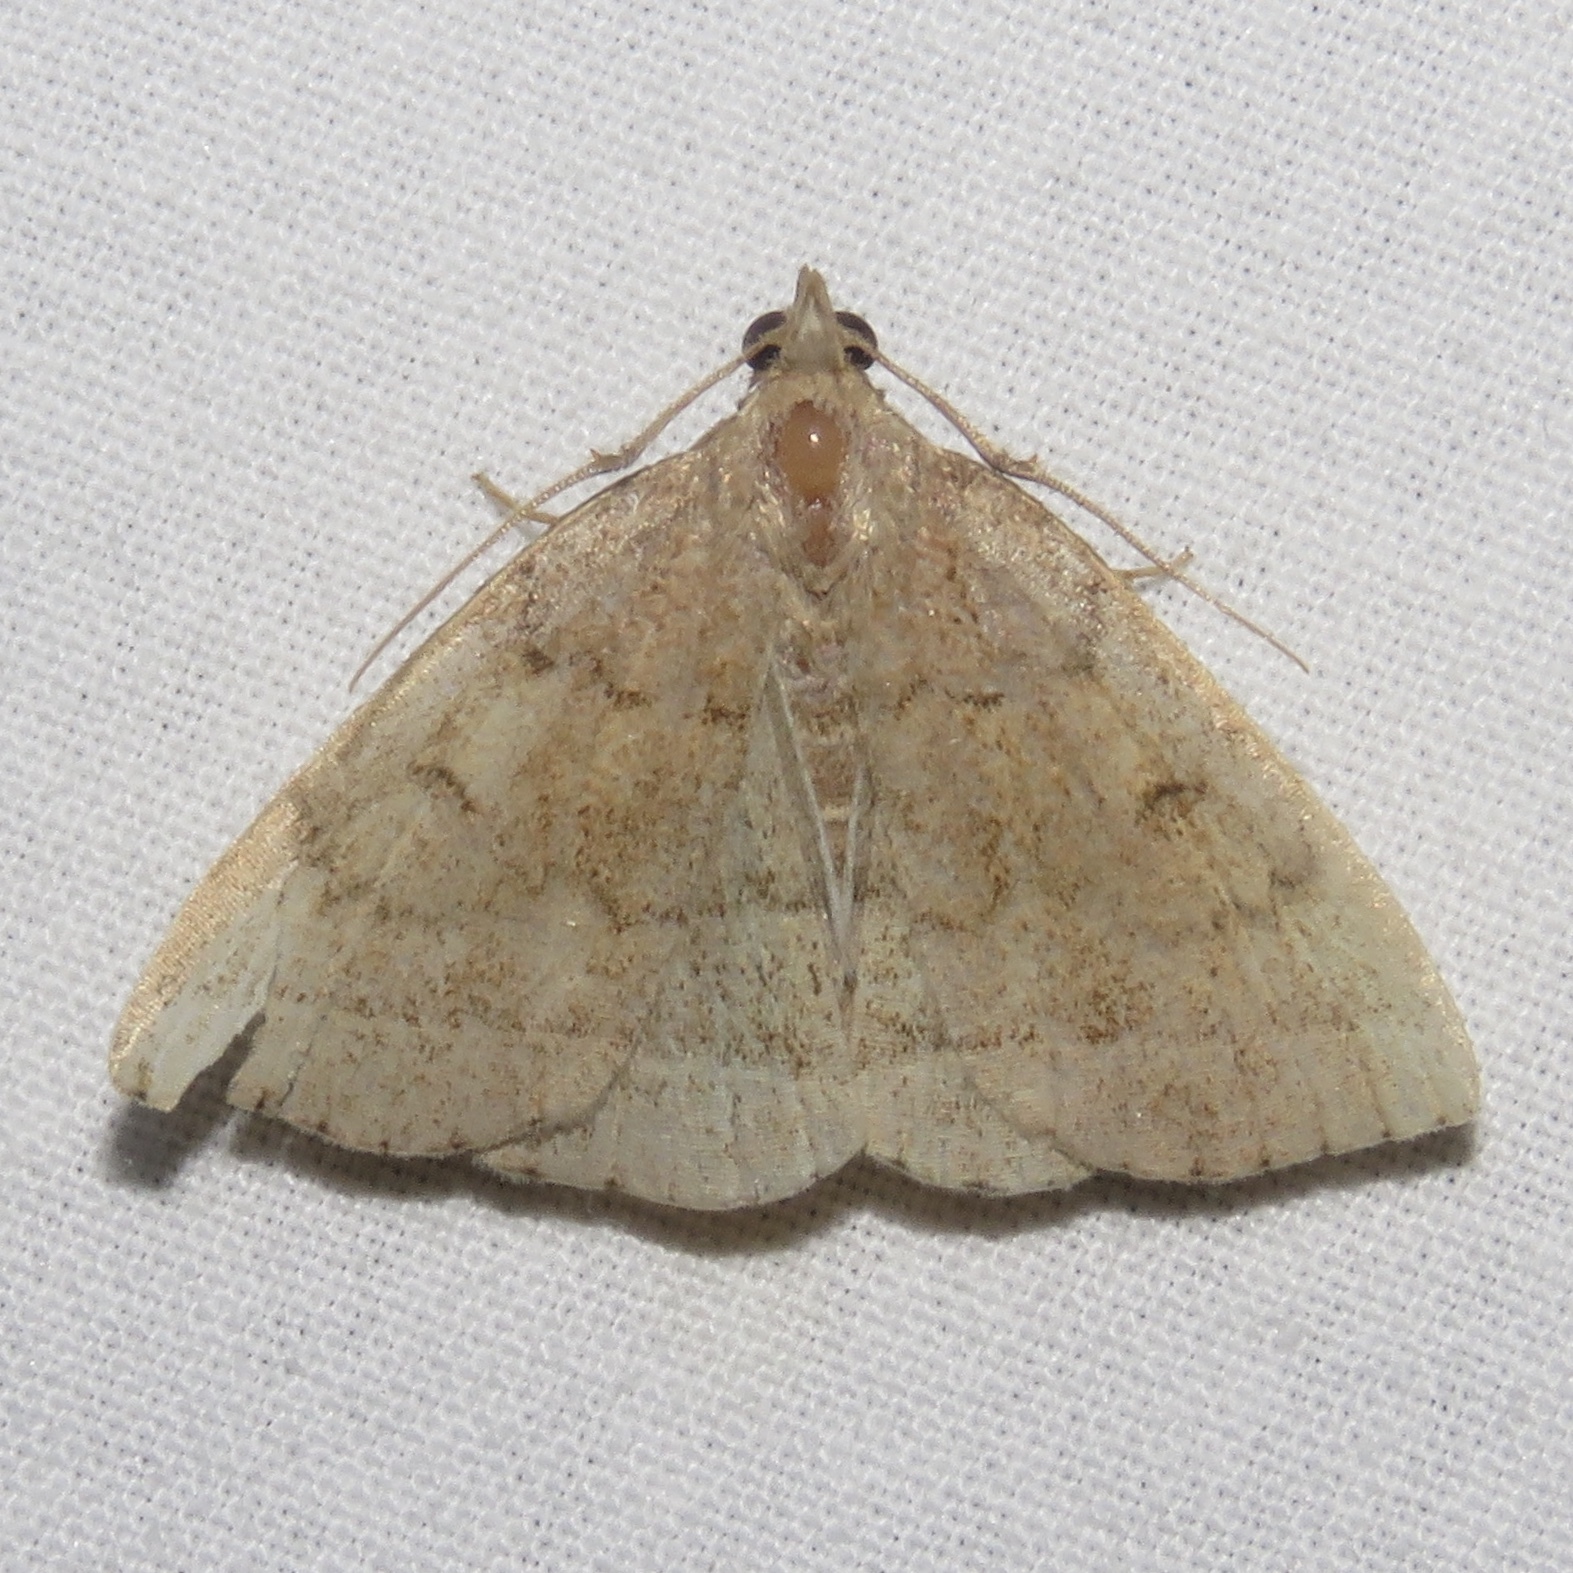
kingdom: Animalia
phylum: Arthropoda
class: Insecta
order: Lepidoptera
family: Erebidae
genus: Zanclognatha
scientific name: Zanclognatha jacchusalis
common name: Yellowish zanclognatha
